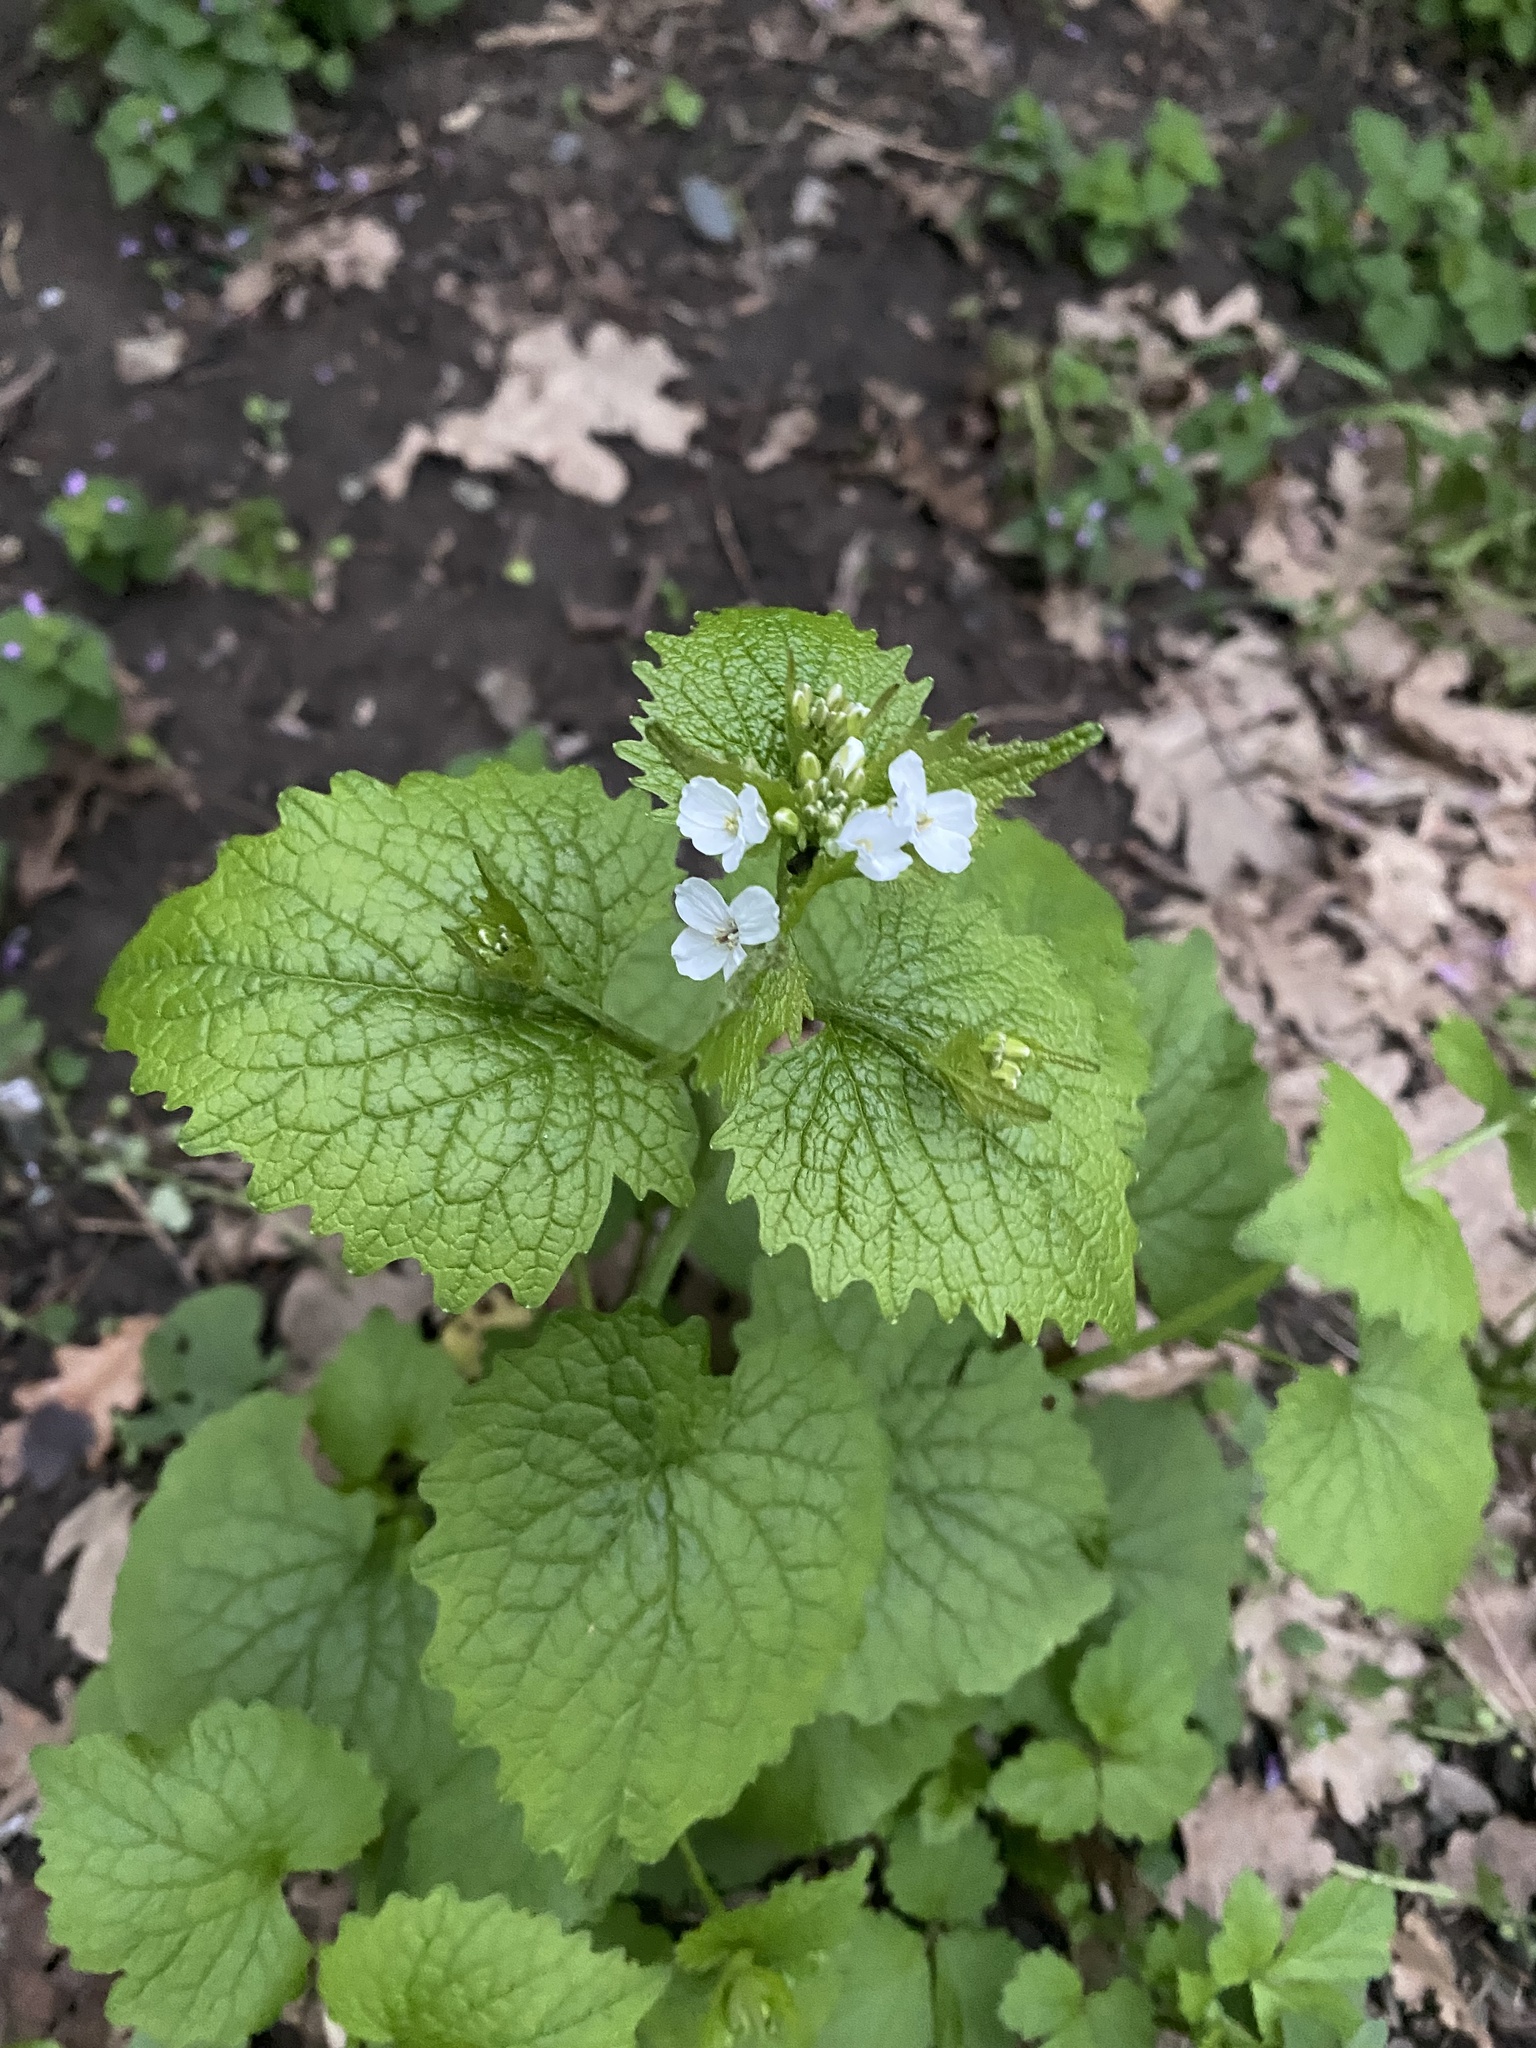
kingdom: Plantae
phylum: Tracheophyta
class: Magnoliopsida
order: Brassicales
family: Brassicaceae
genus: Alliaria
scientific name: Alliaria petiolata
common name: Garlic mustard
